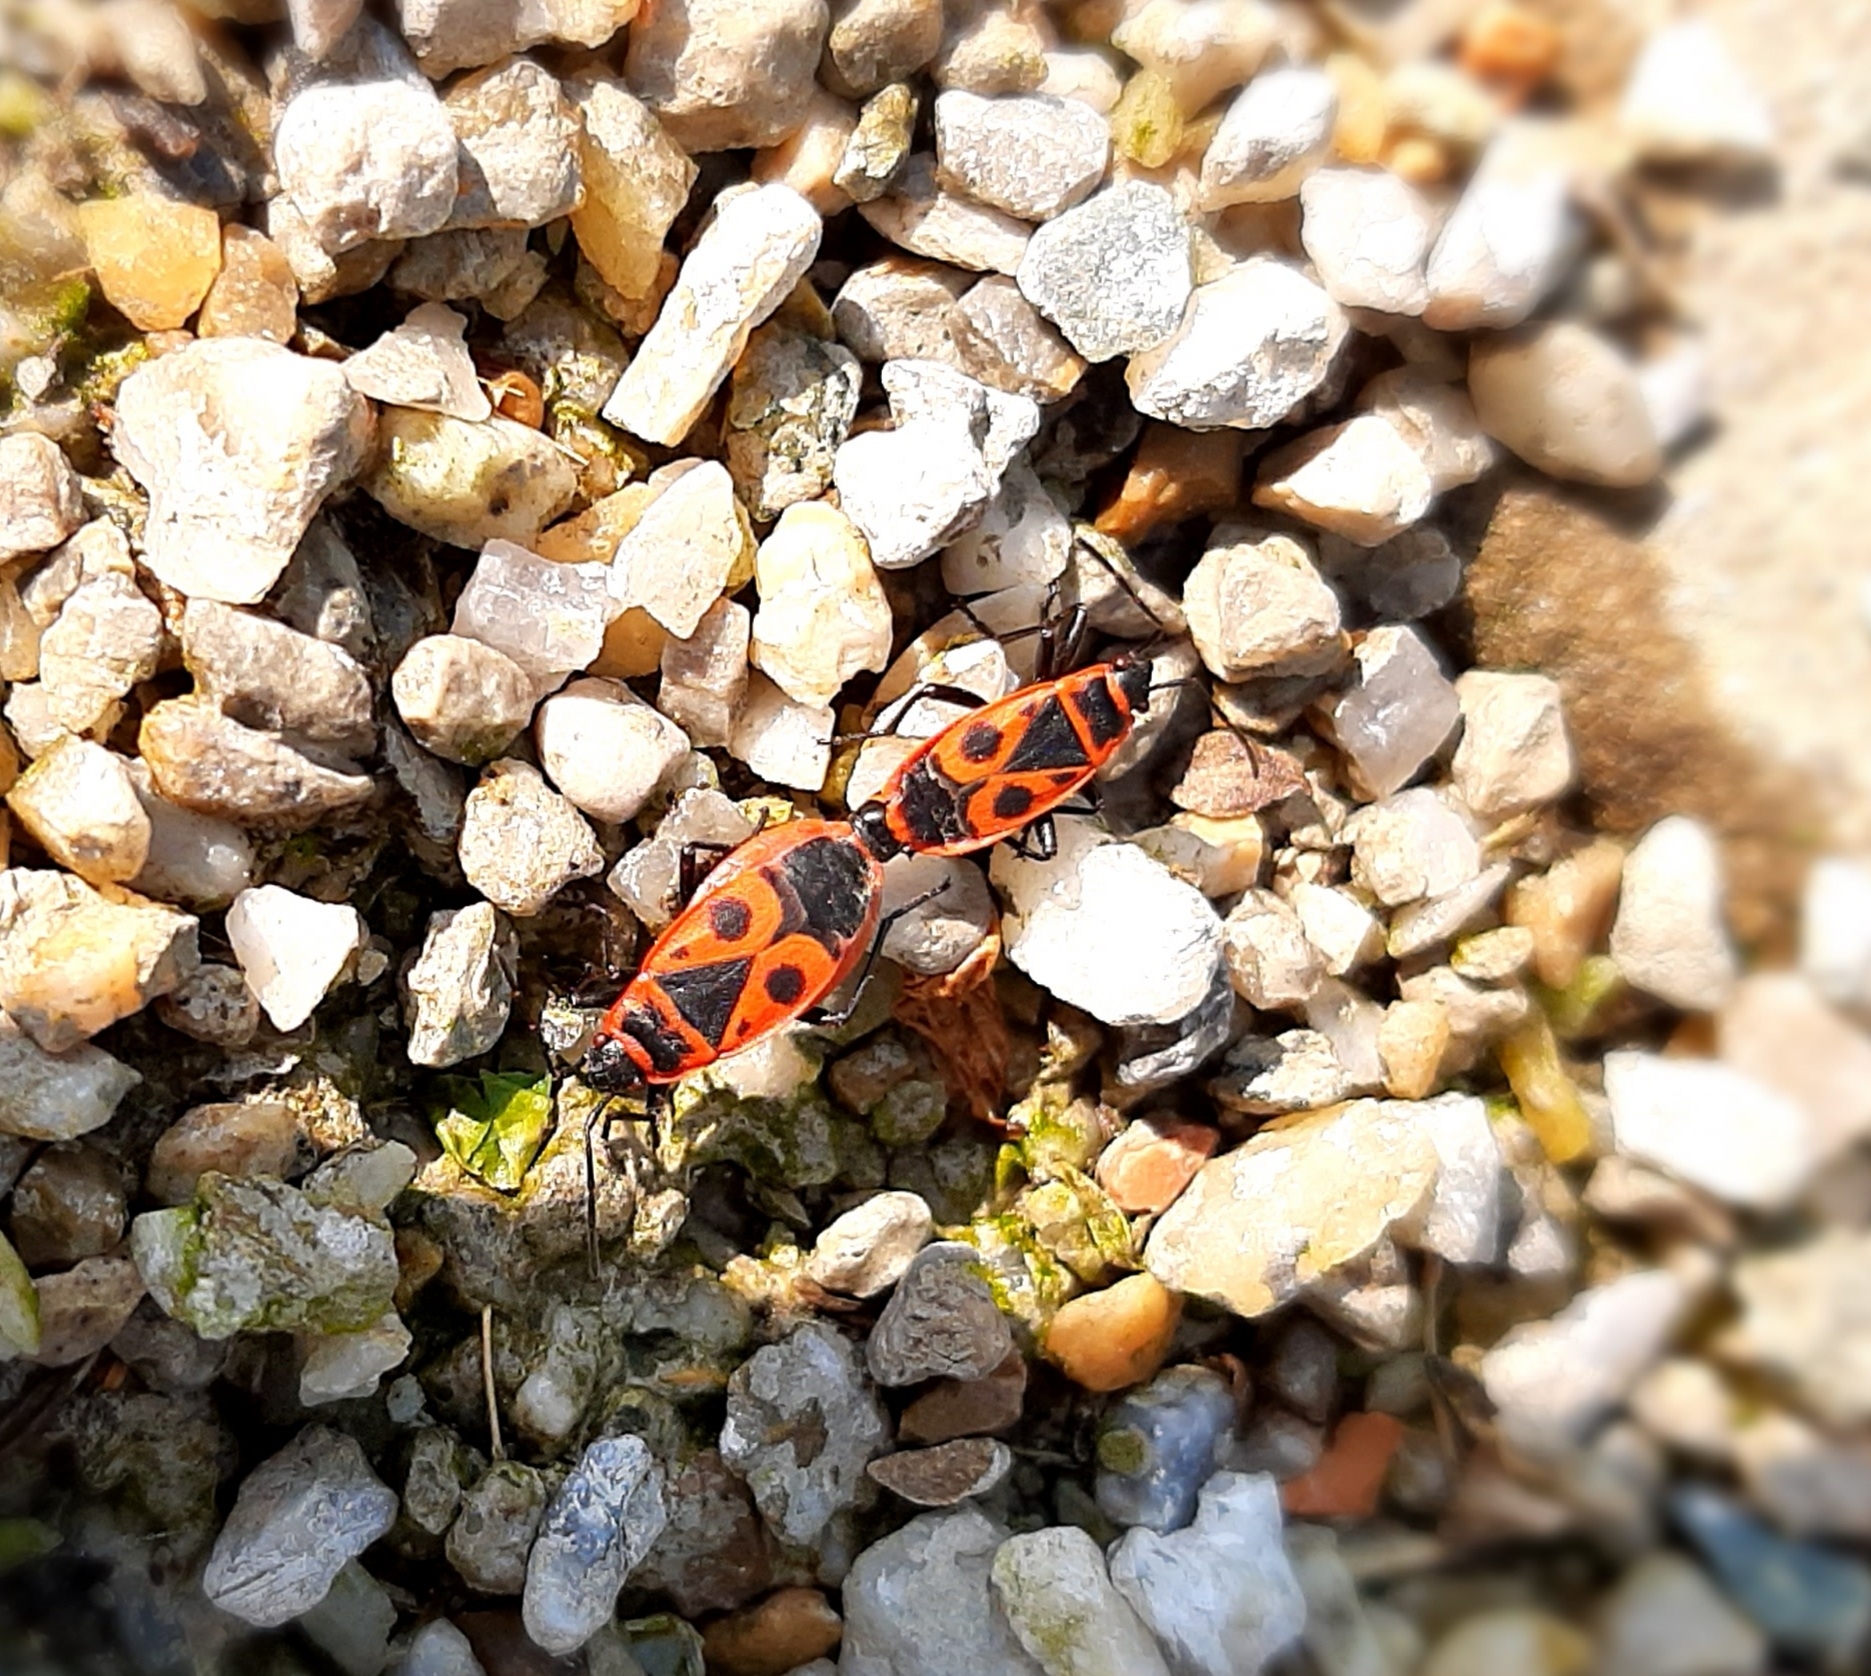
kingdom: Animalia
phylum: Arthropoda
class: Insecta
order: Hemiptera
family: Pyrrhocoridae
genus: Pyrrhocoris
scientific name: Pyrrhocoris apterus
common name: Firebug
